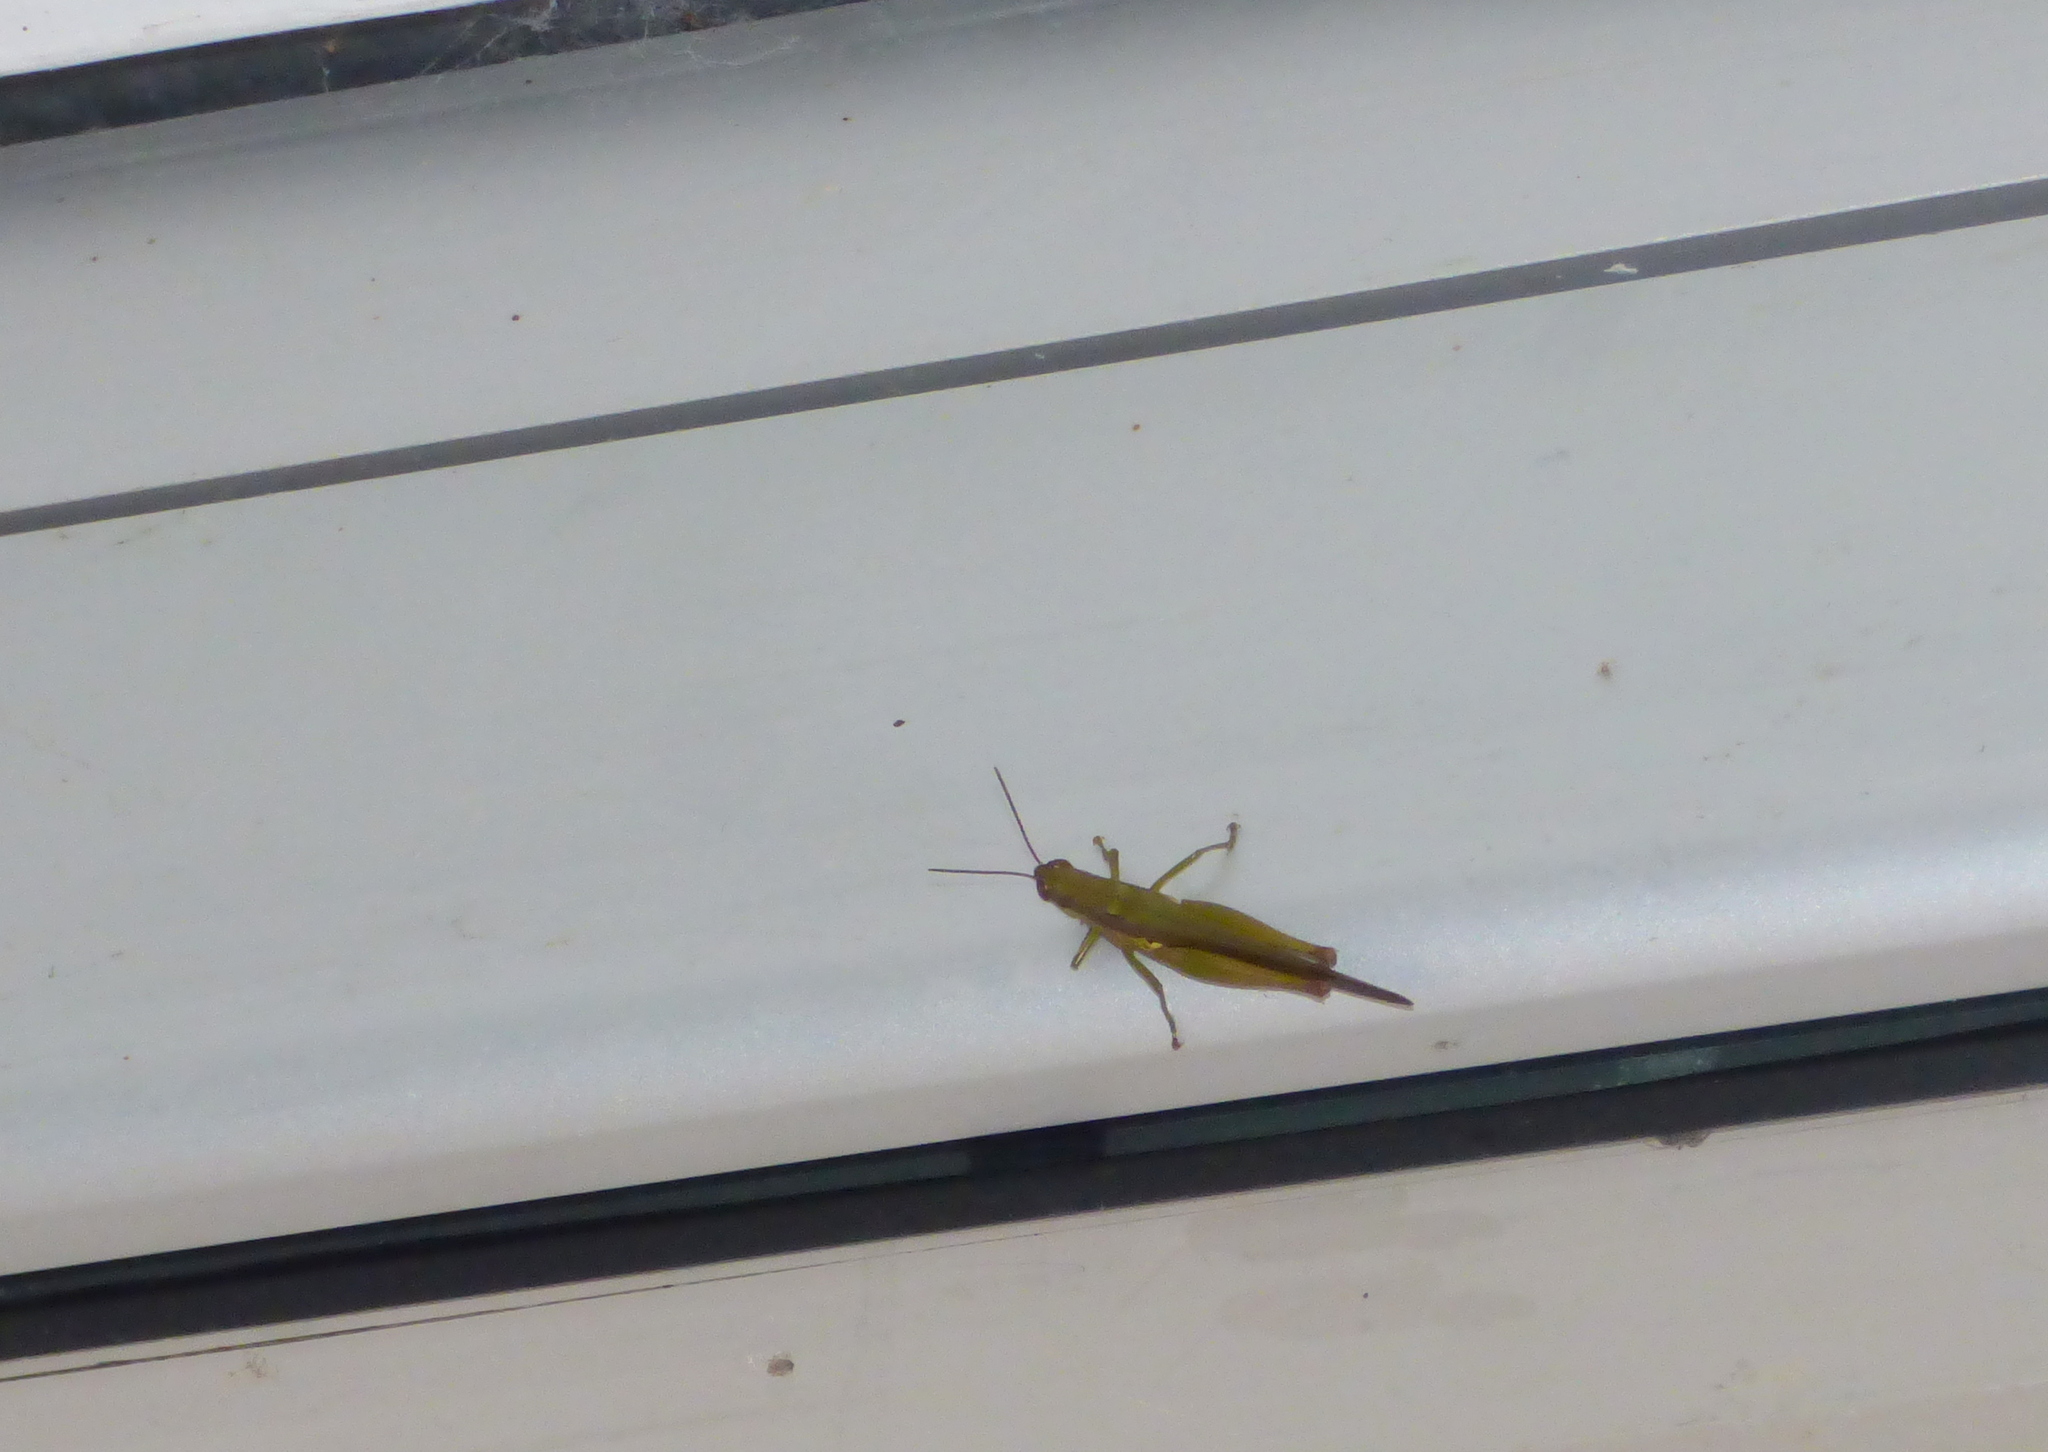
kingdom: Animalia
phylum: Arthropoda
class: Insecta
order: Orthoptera
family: Acrididae
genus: Cornops
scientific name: Cornops aquaticum
